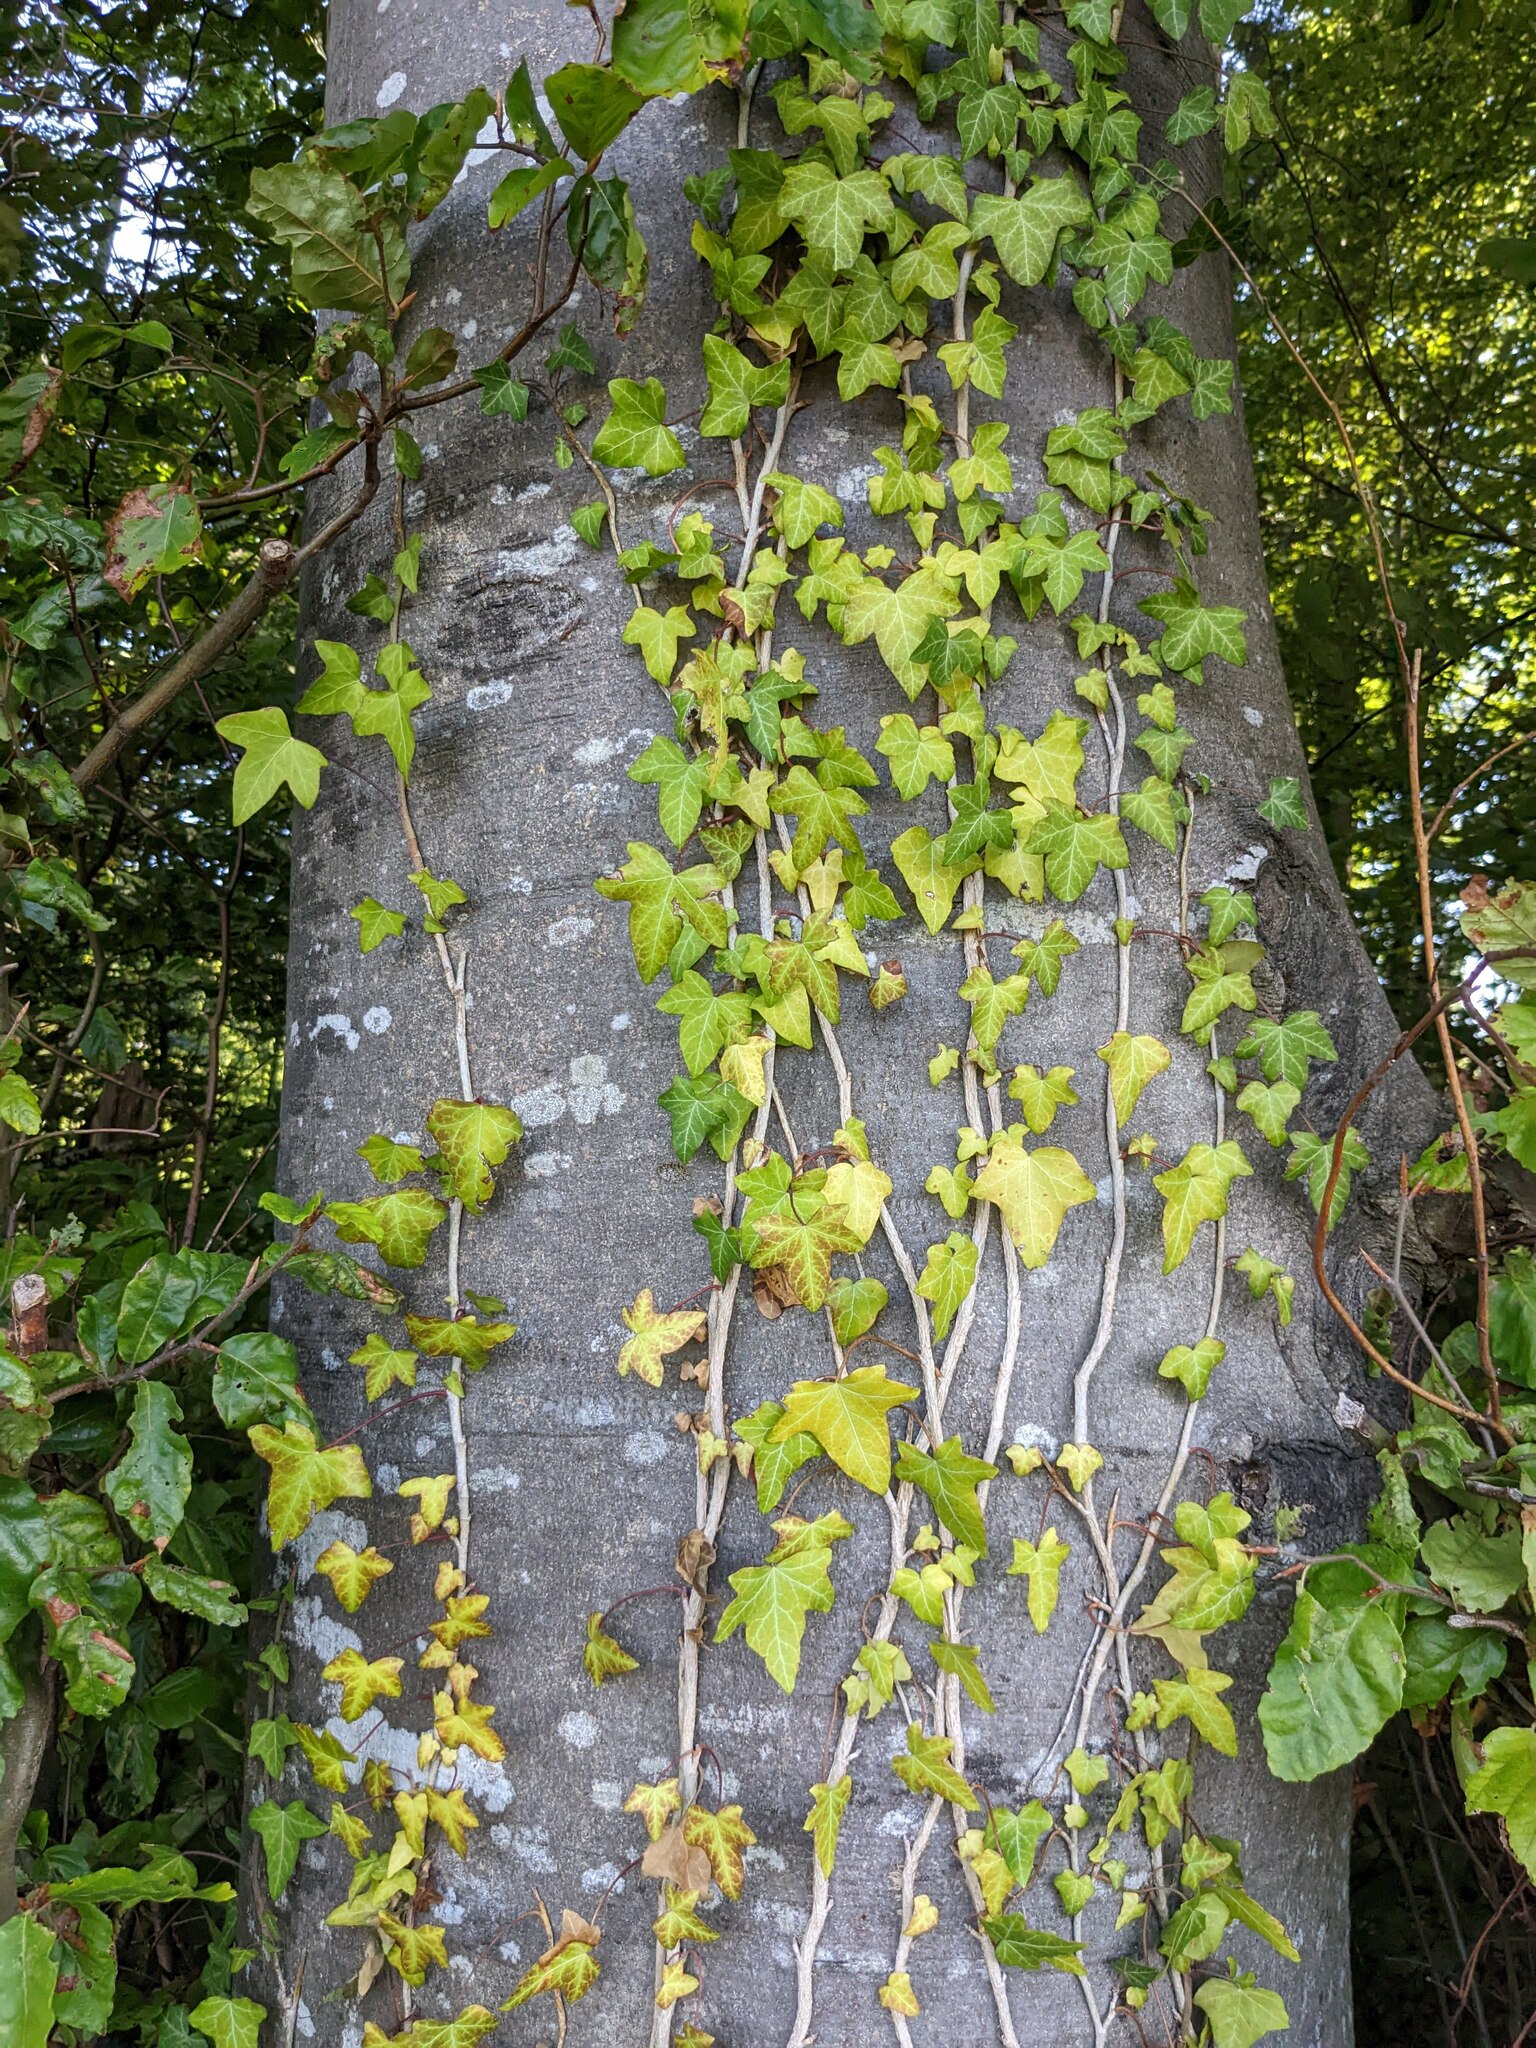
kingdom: Plantae
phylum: Tracheophyta
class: Magnoliopsida
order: Apiales
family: Araliaceae
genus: Hedera
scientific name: Hedera helix
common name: Ivy
